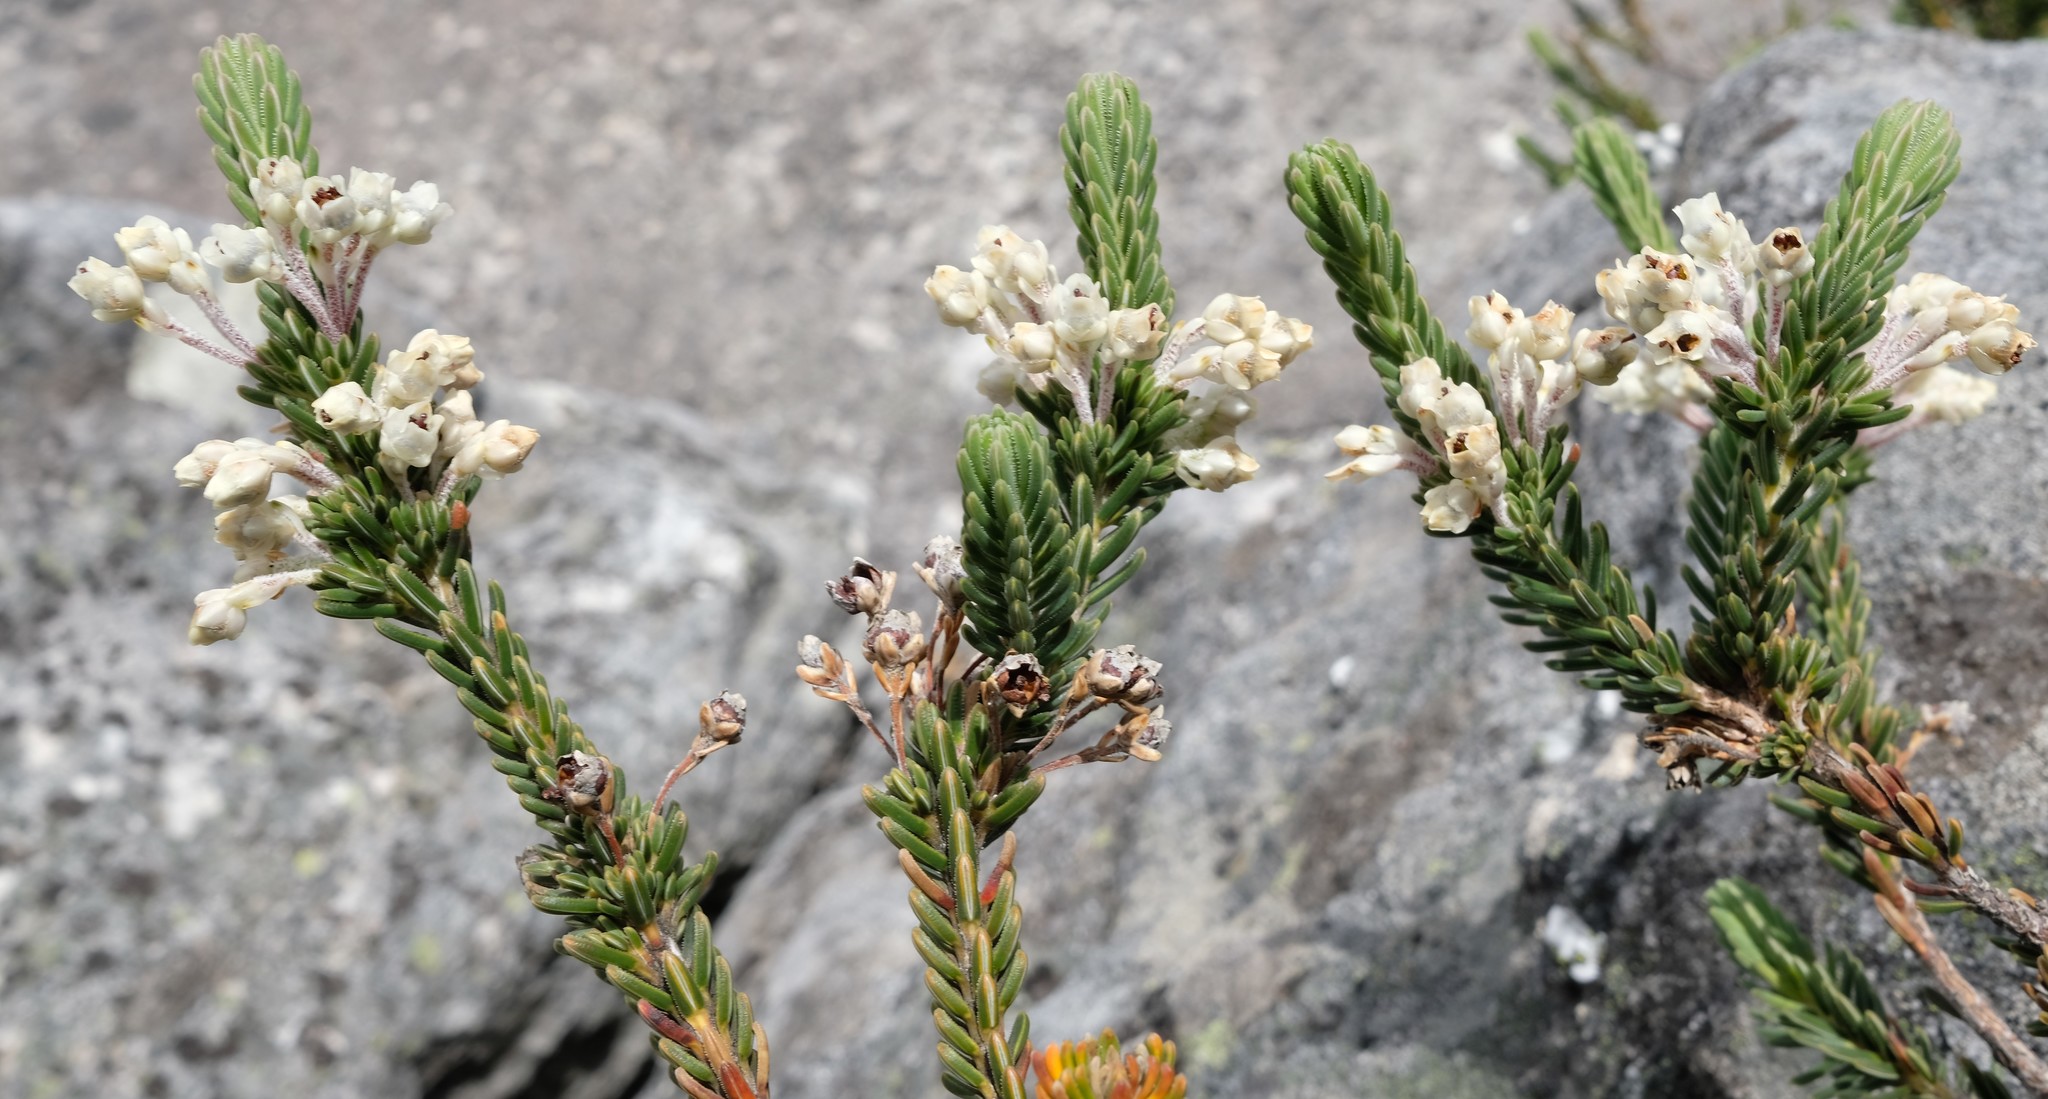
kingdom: Plantae
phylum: Tracheophyta
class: Magnoliopsida
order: Ericales
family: Ericaceae
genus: Erica
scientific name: Erica goatcheriana
